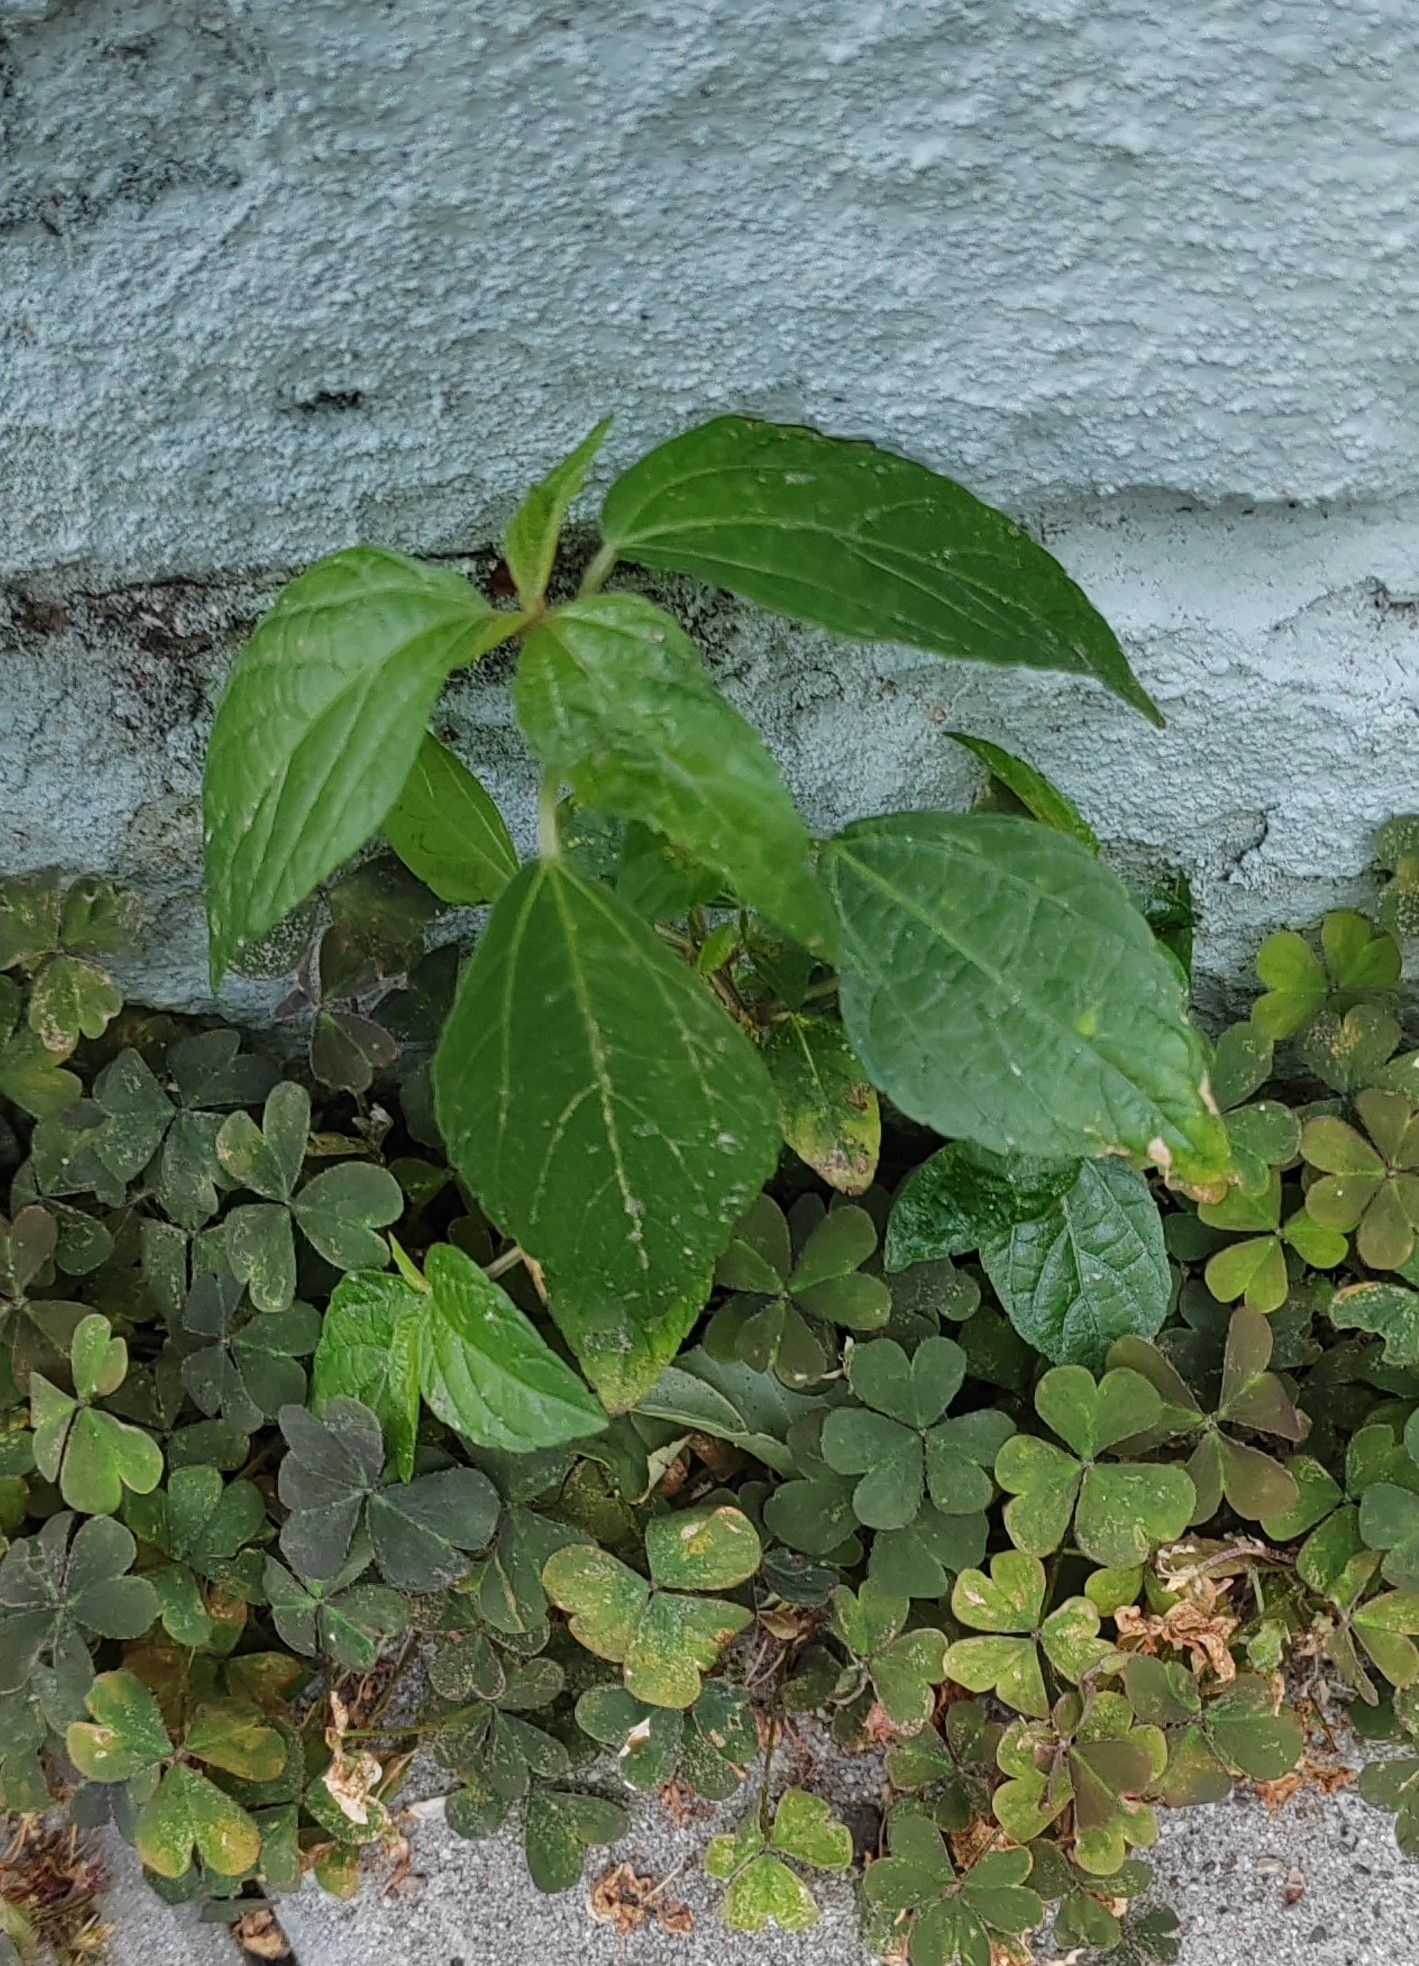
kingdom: Plantae
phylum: Tracheophyta
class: Magnoliopsida
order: Malpighiales
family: Euphorbiaceae
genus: Acalypha
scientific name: Acalypha australis
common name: Asian copperleaf
